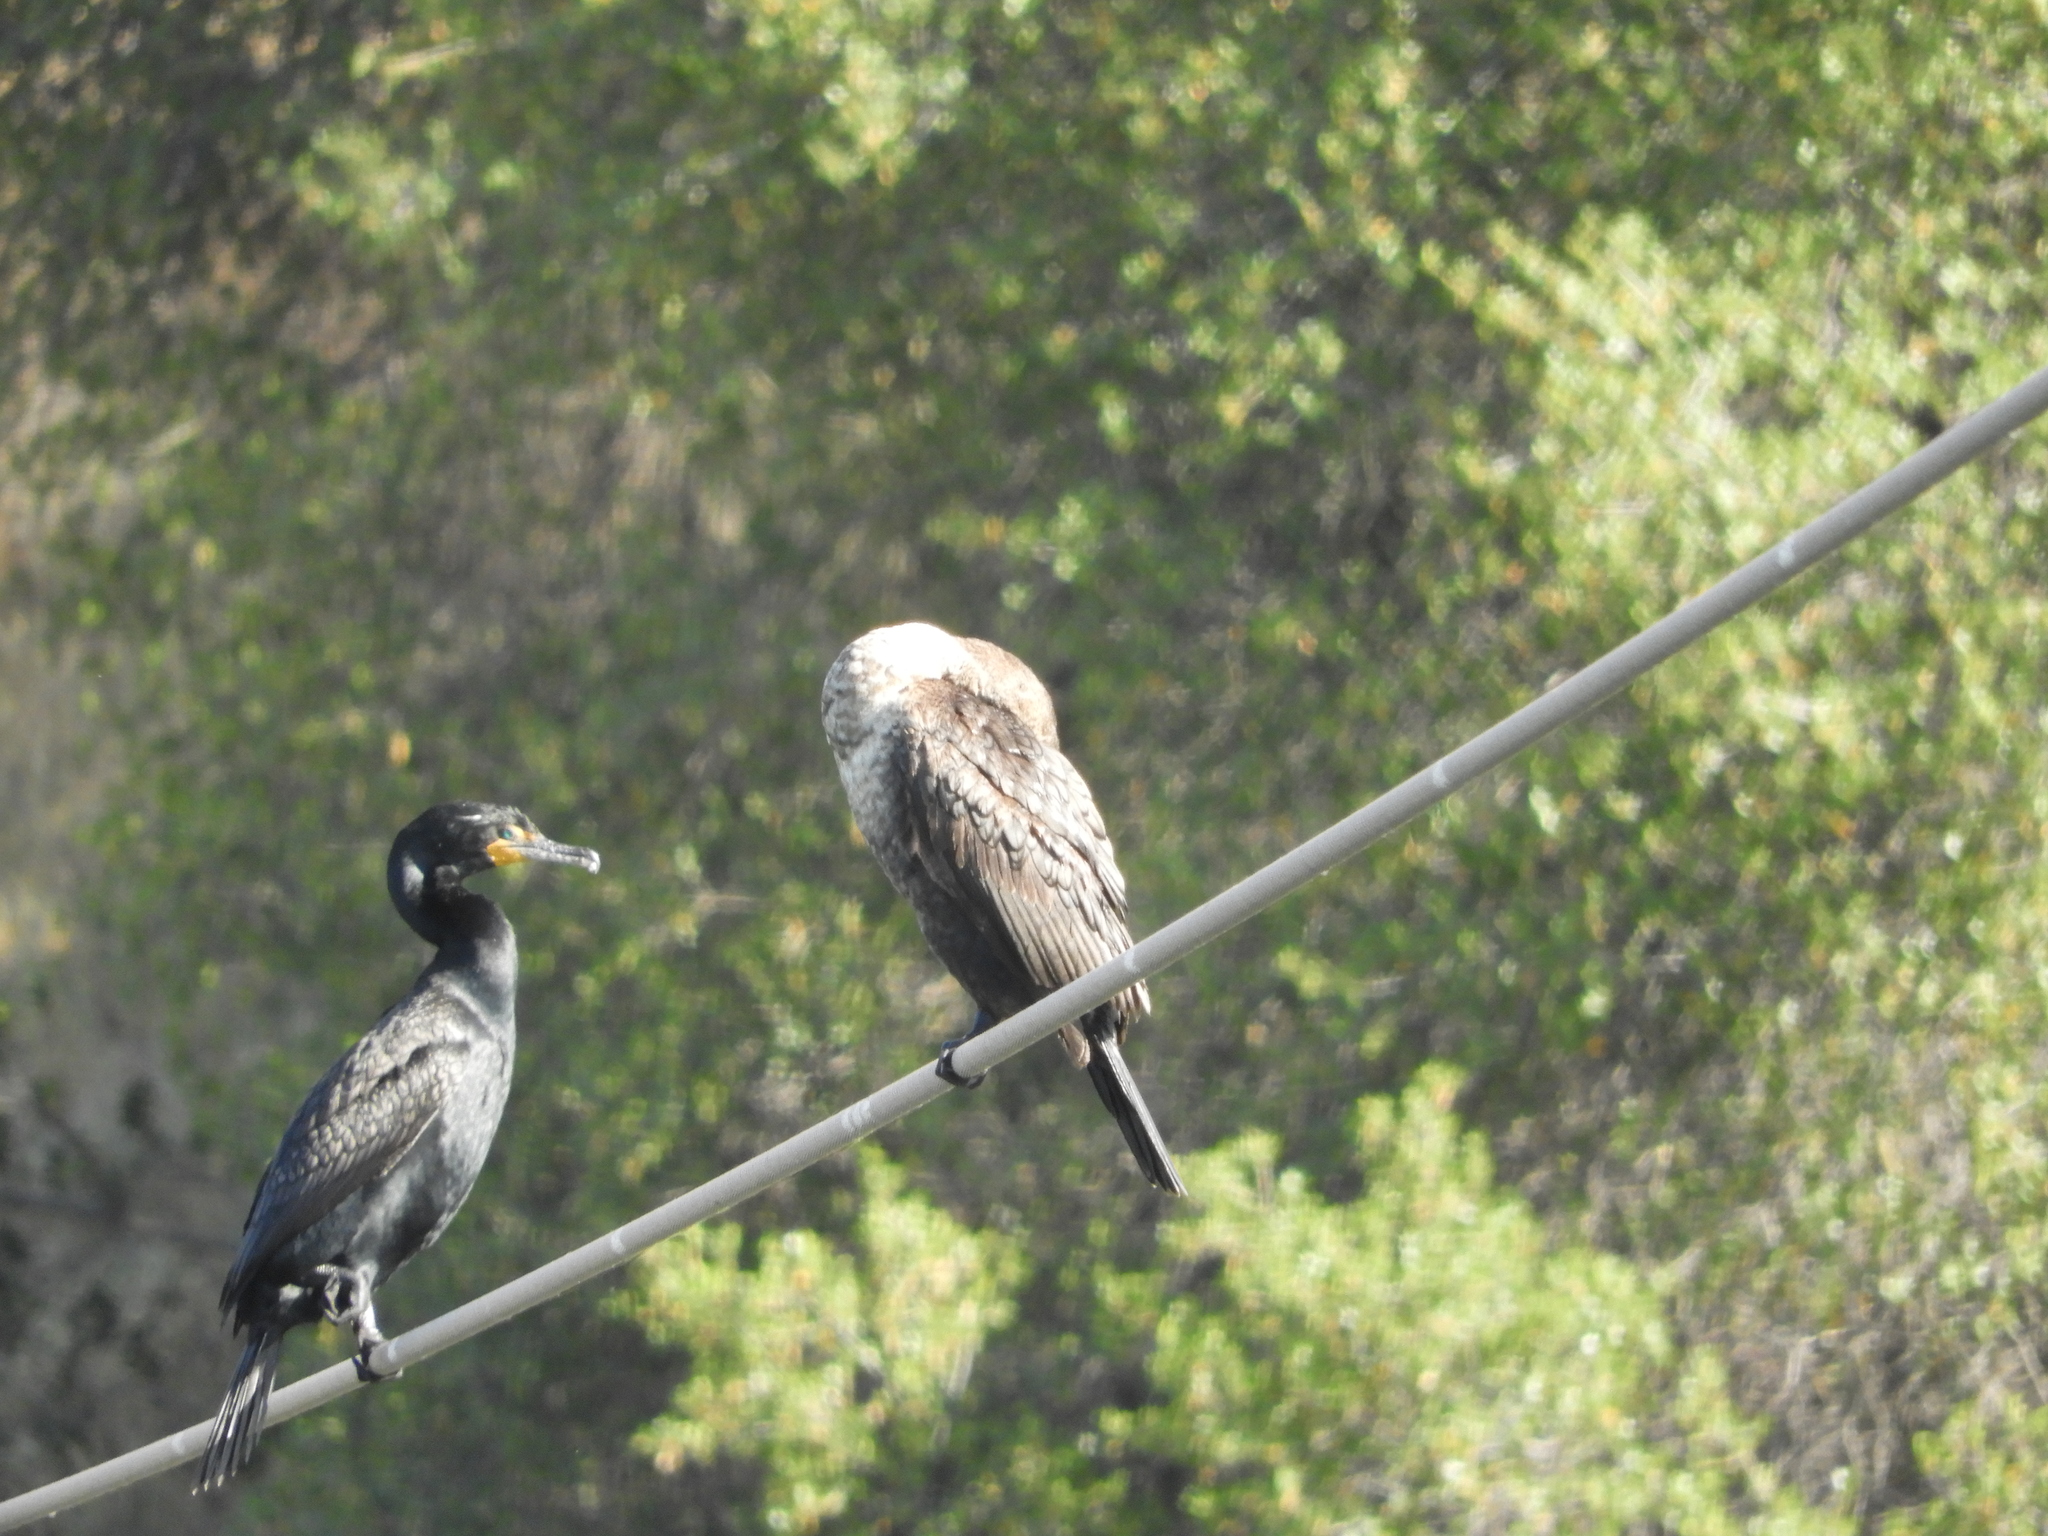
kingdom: Animalia
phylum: Chordata
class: Aves
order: Suliformes
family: Phalacrocoracidae
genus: Phalacrocorax
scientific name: Phalacrocorax auritus
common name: Double-crested cormorant
